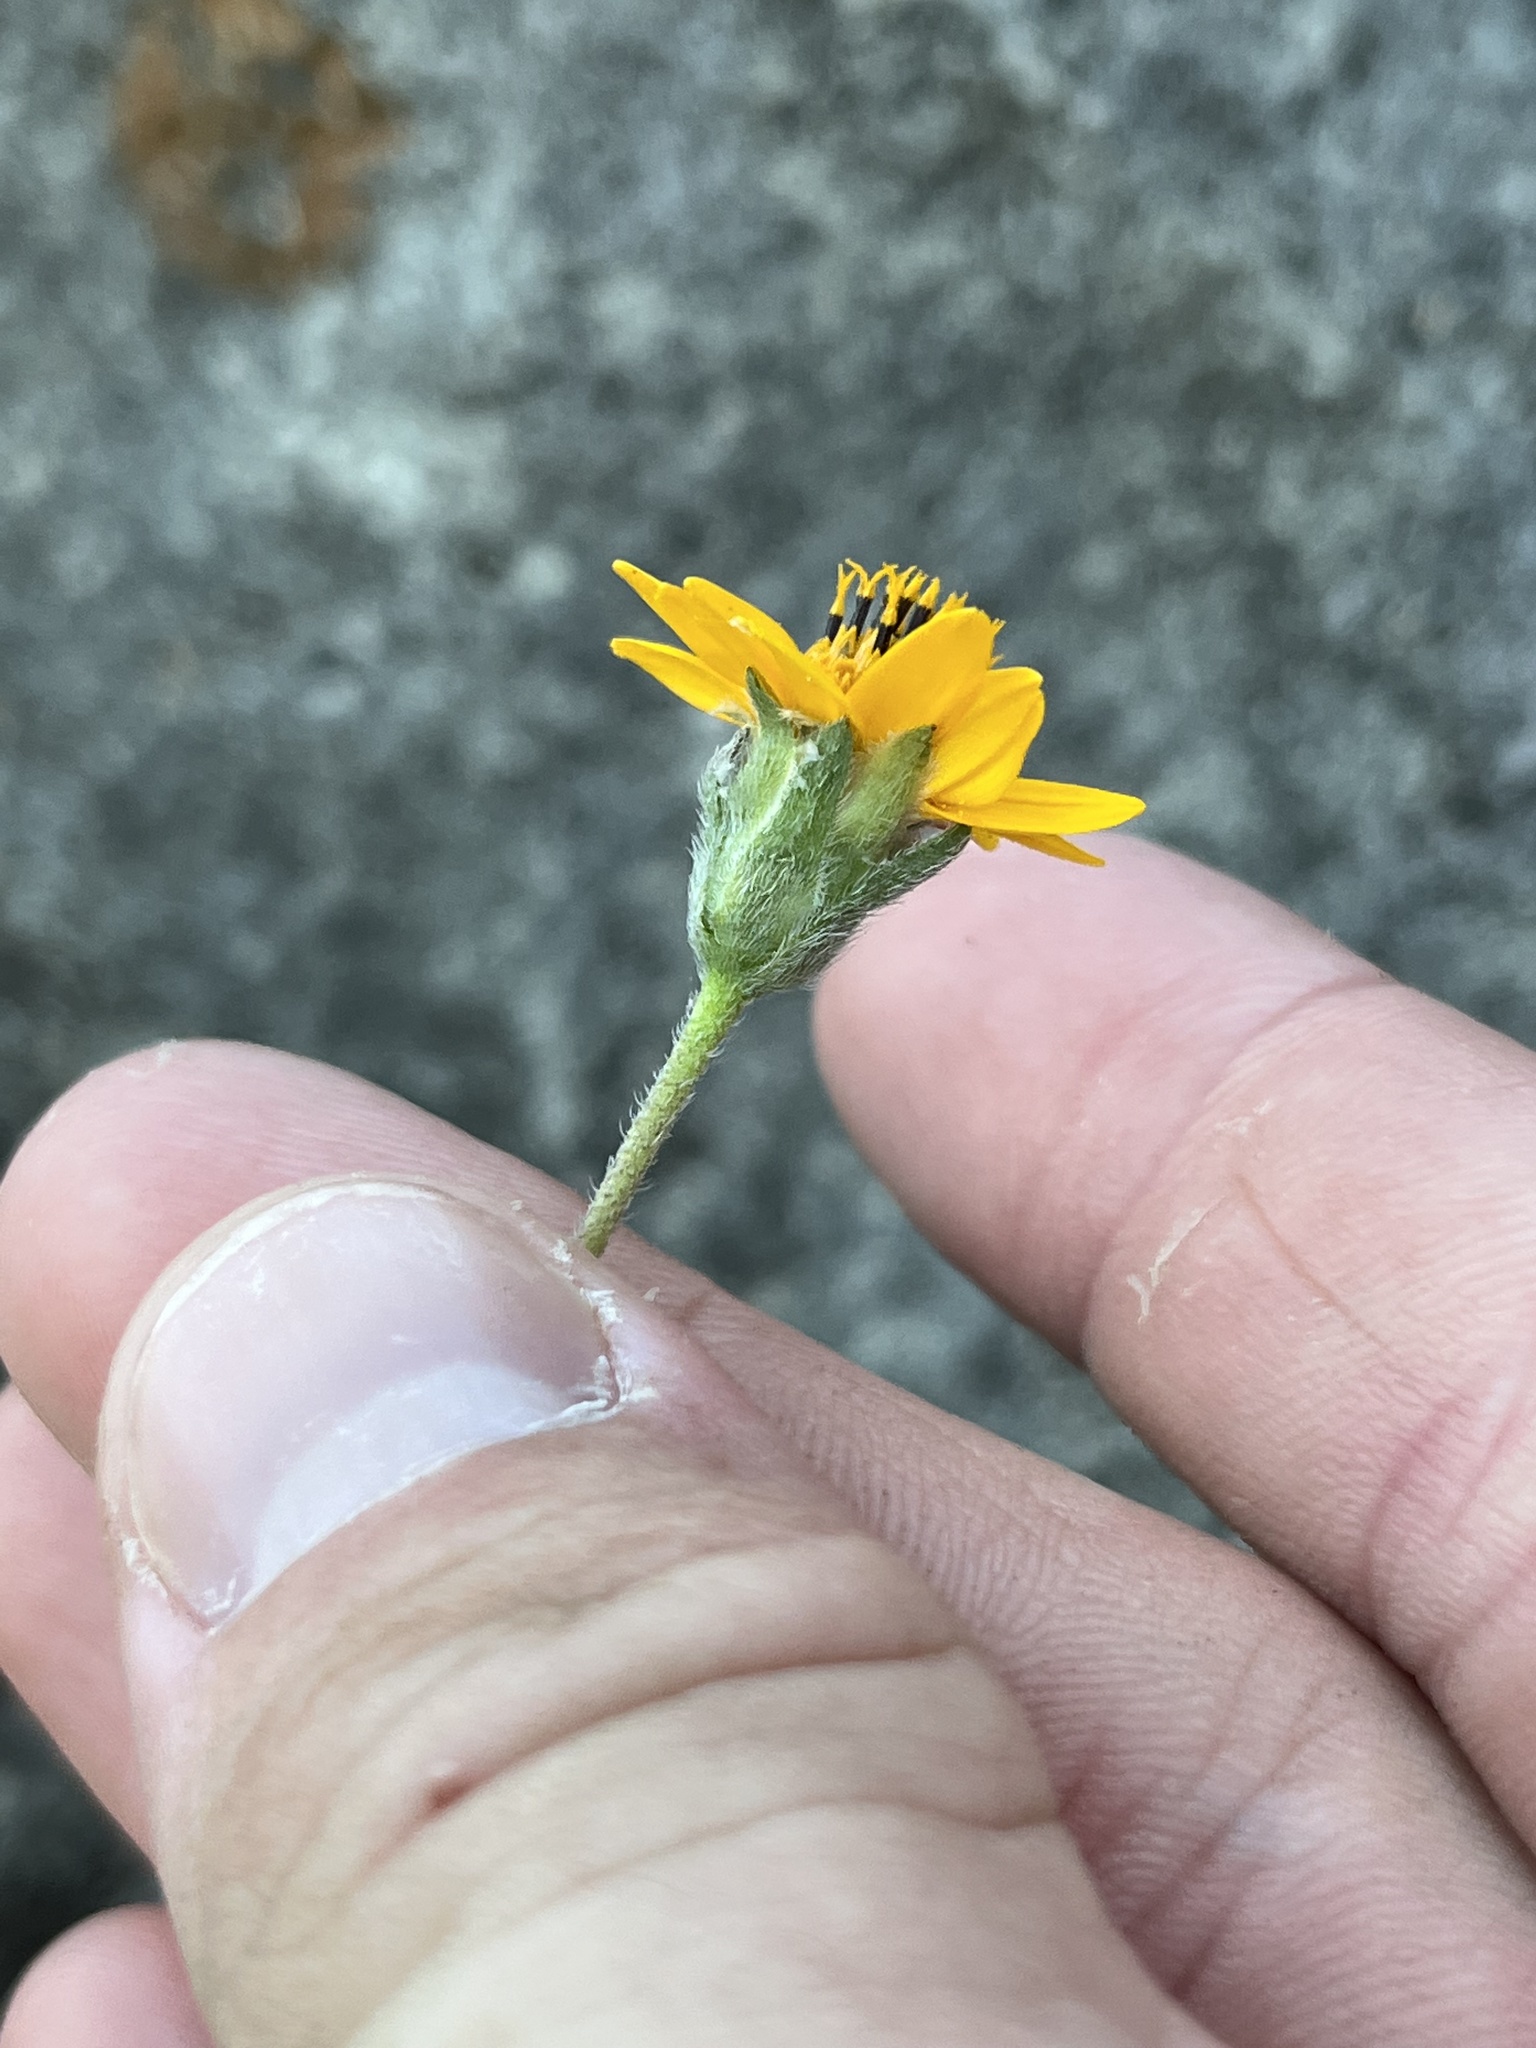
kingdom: Plantae
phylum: Tracheophyta
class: Magnoliopsida
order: Asterales
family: Asteraceae
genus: Wedelia
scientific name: Wedelia acapulcensis
